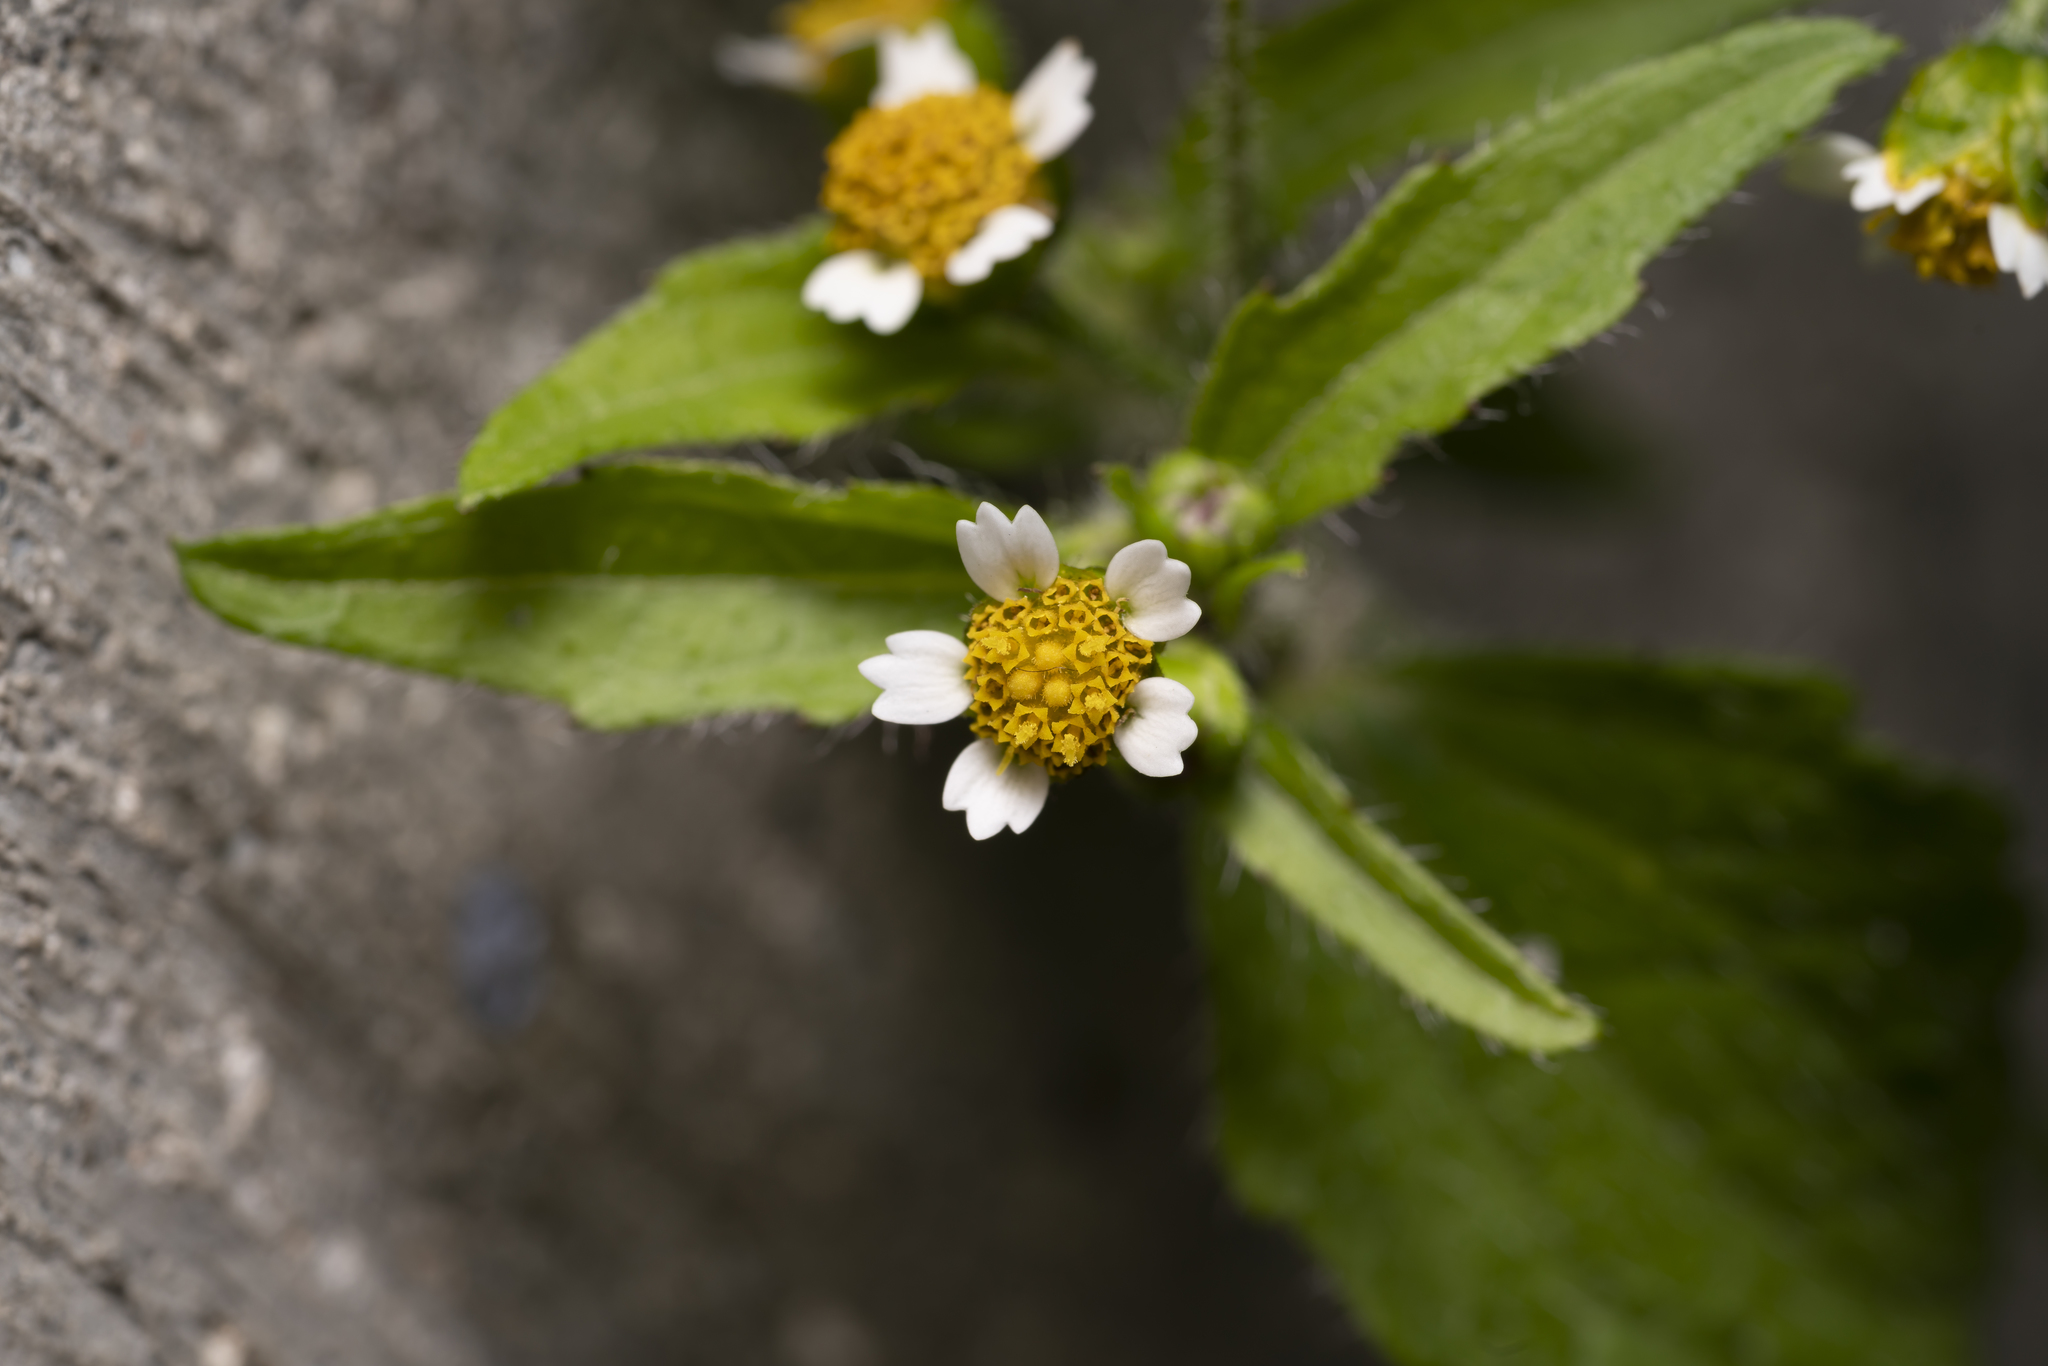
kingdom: Plantae
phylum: Tracheophyta
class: Magnoliopsida
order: Asterales
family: Asteraceae
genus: Galinsoga
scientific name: Galinsoga quadriradiata
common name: Shaggy soldier
